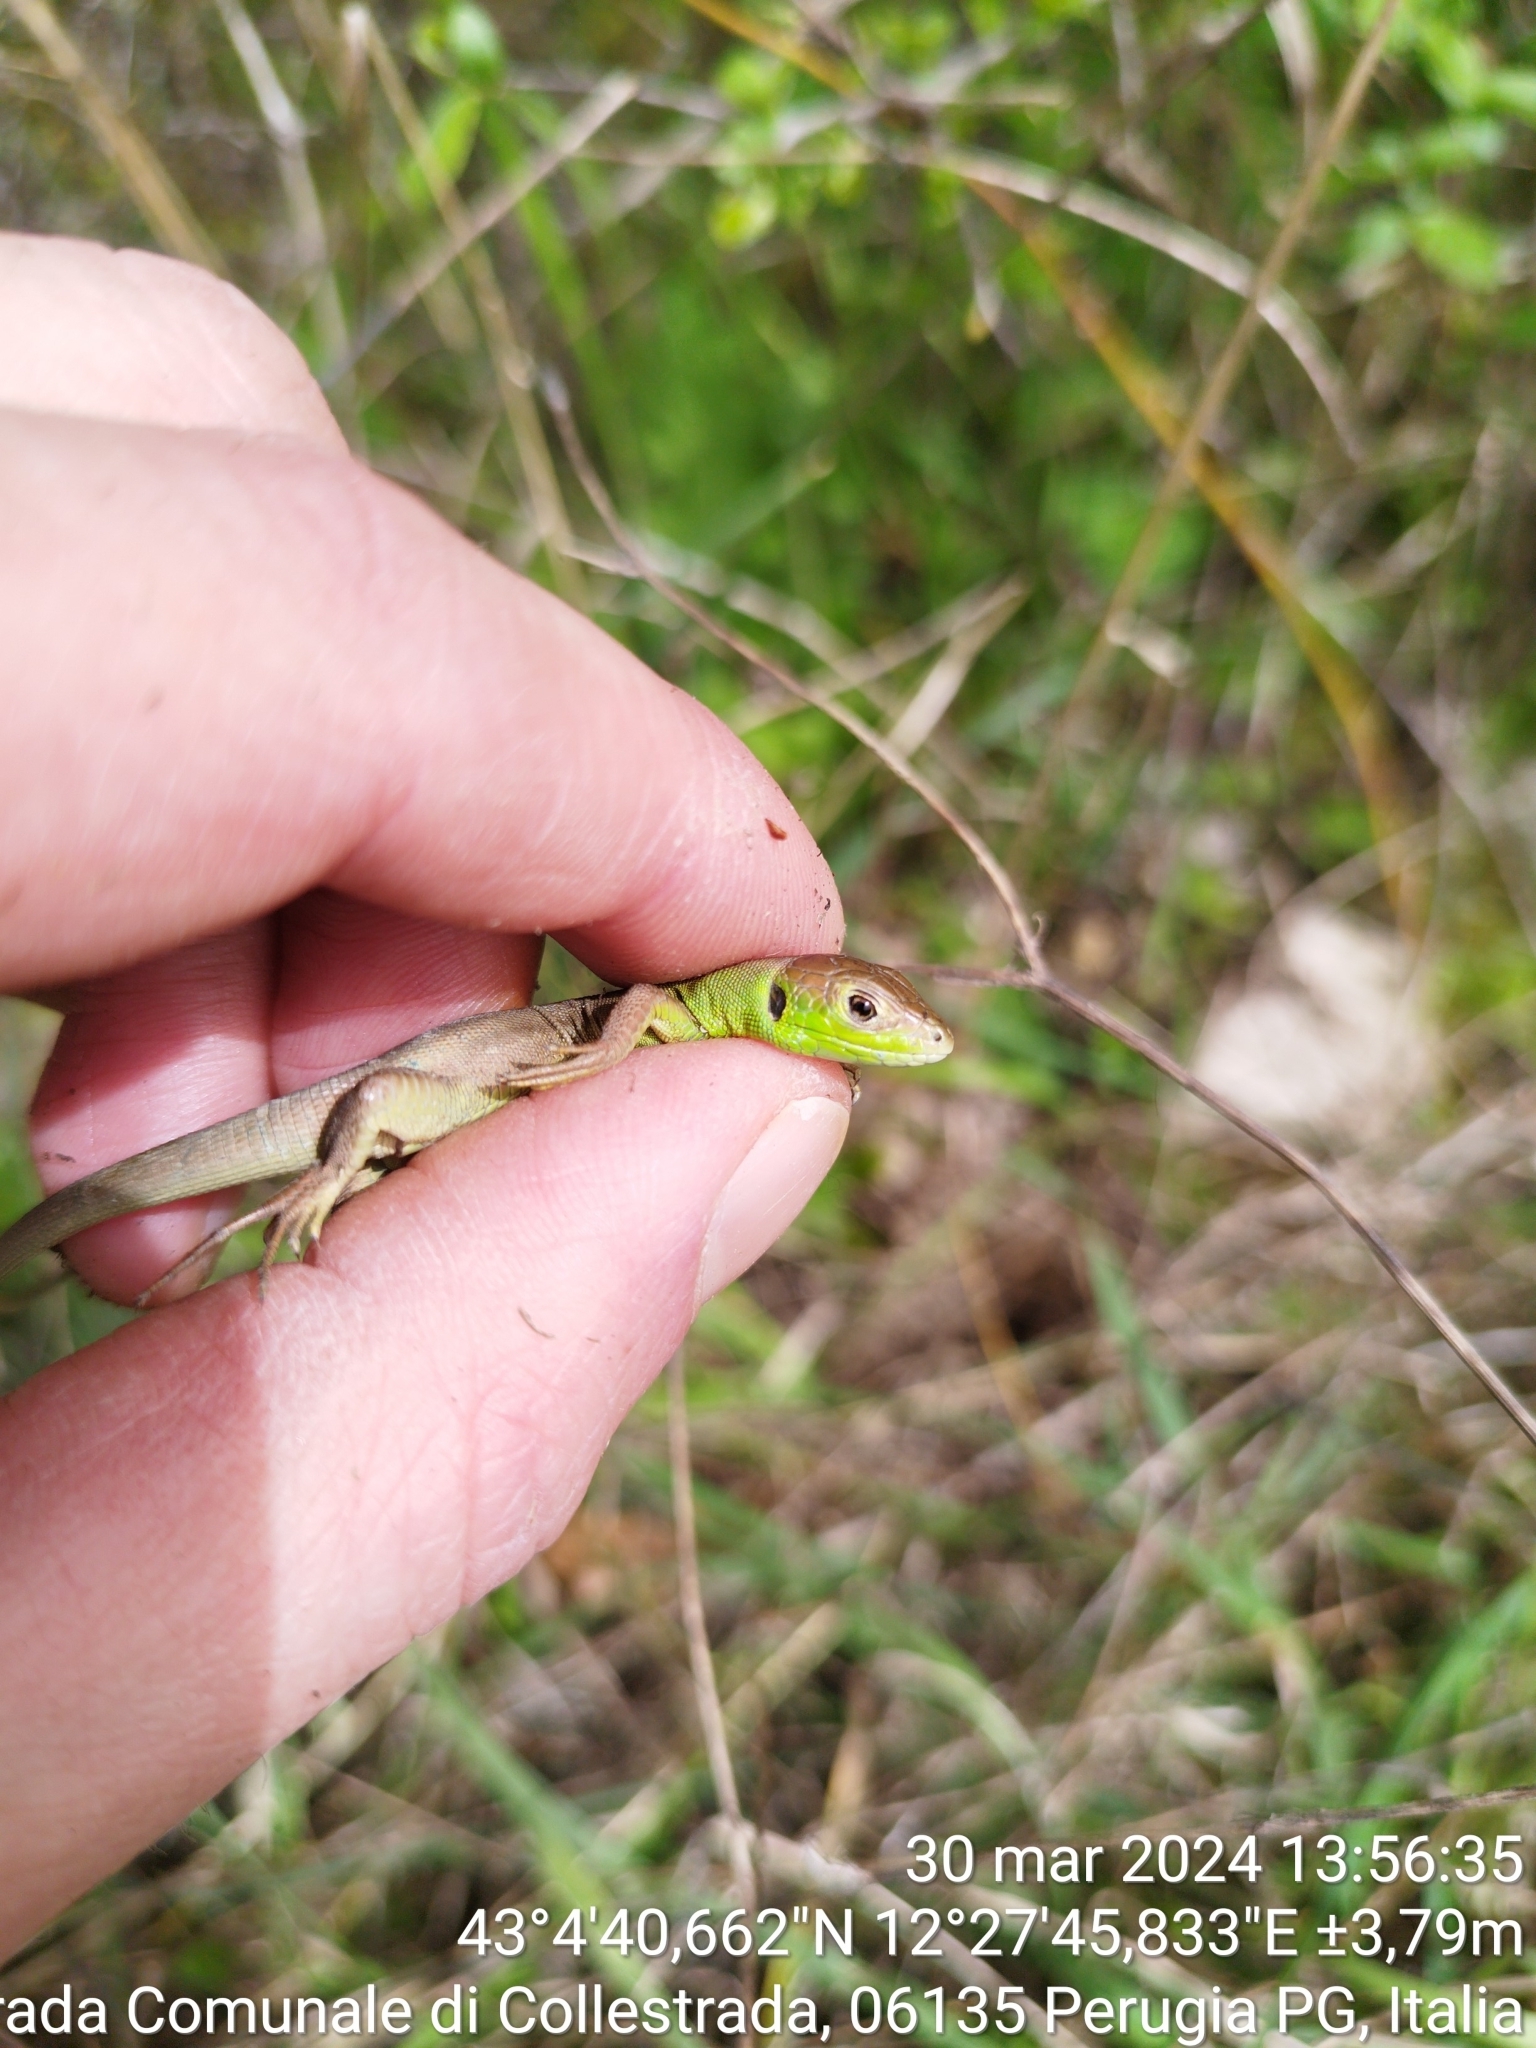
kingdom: Animalia
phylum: Chordata
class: Squamata
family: Lacertidae
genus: Lacerta
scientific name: Lacerta bilineata
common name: Western green lizard
